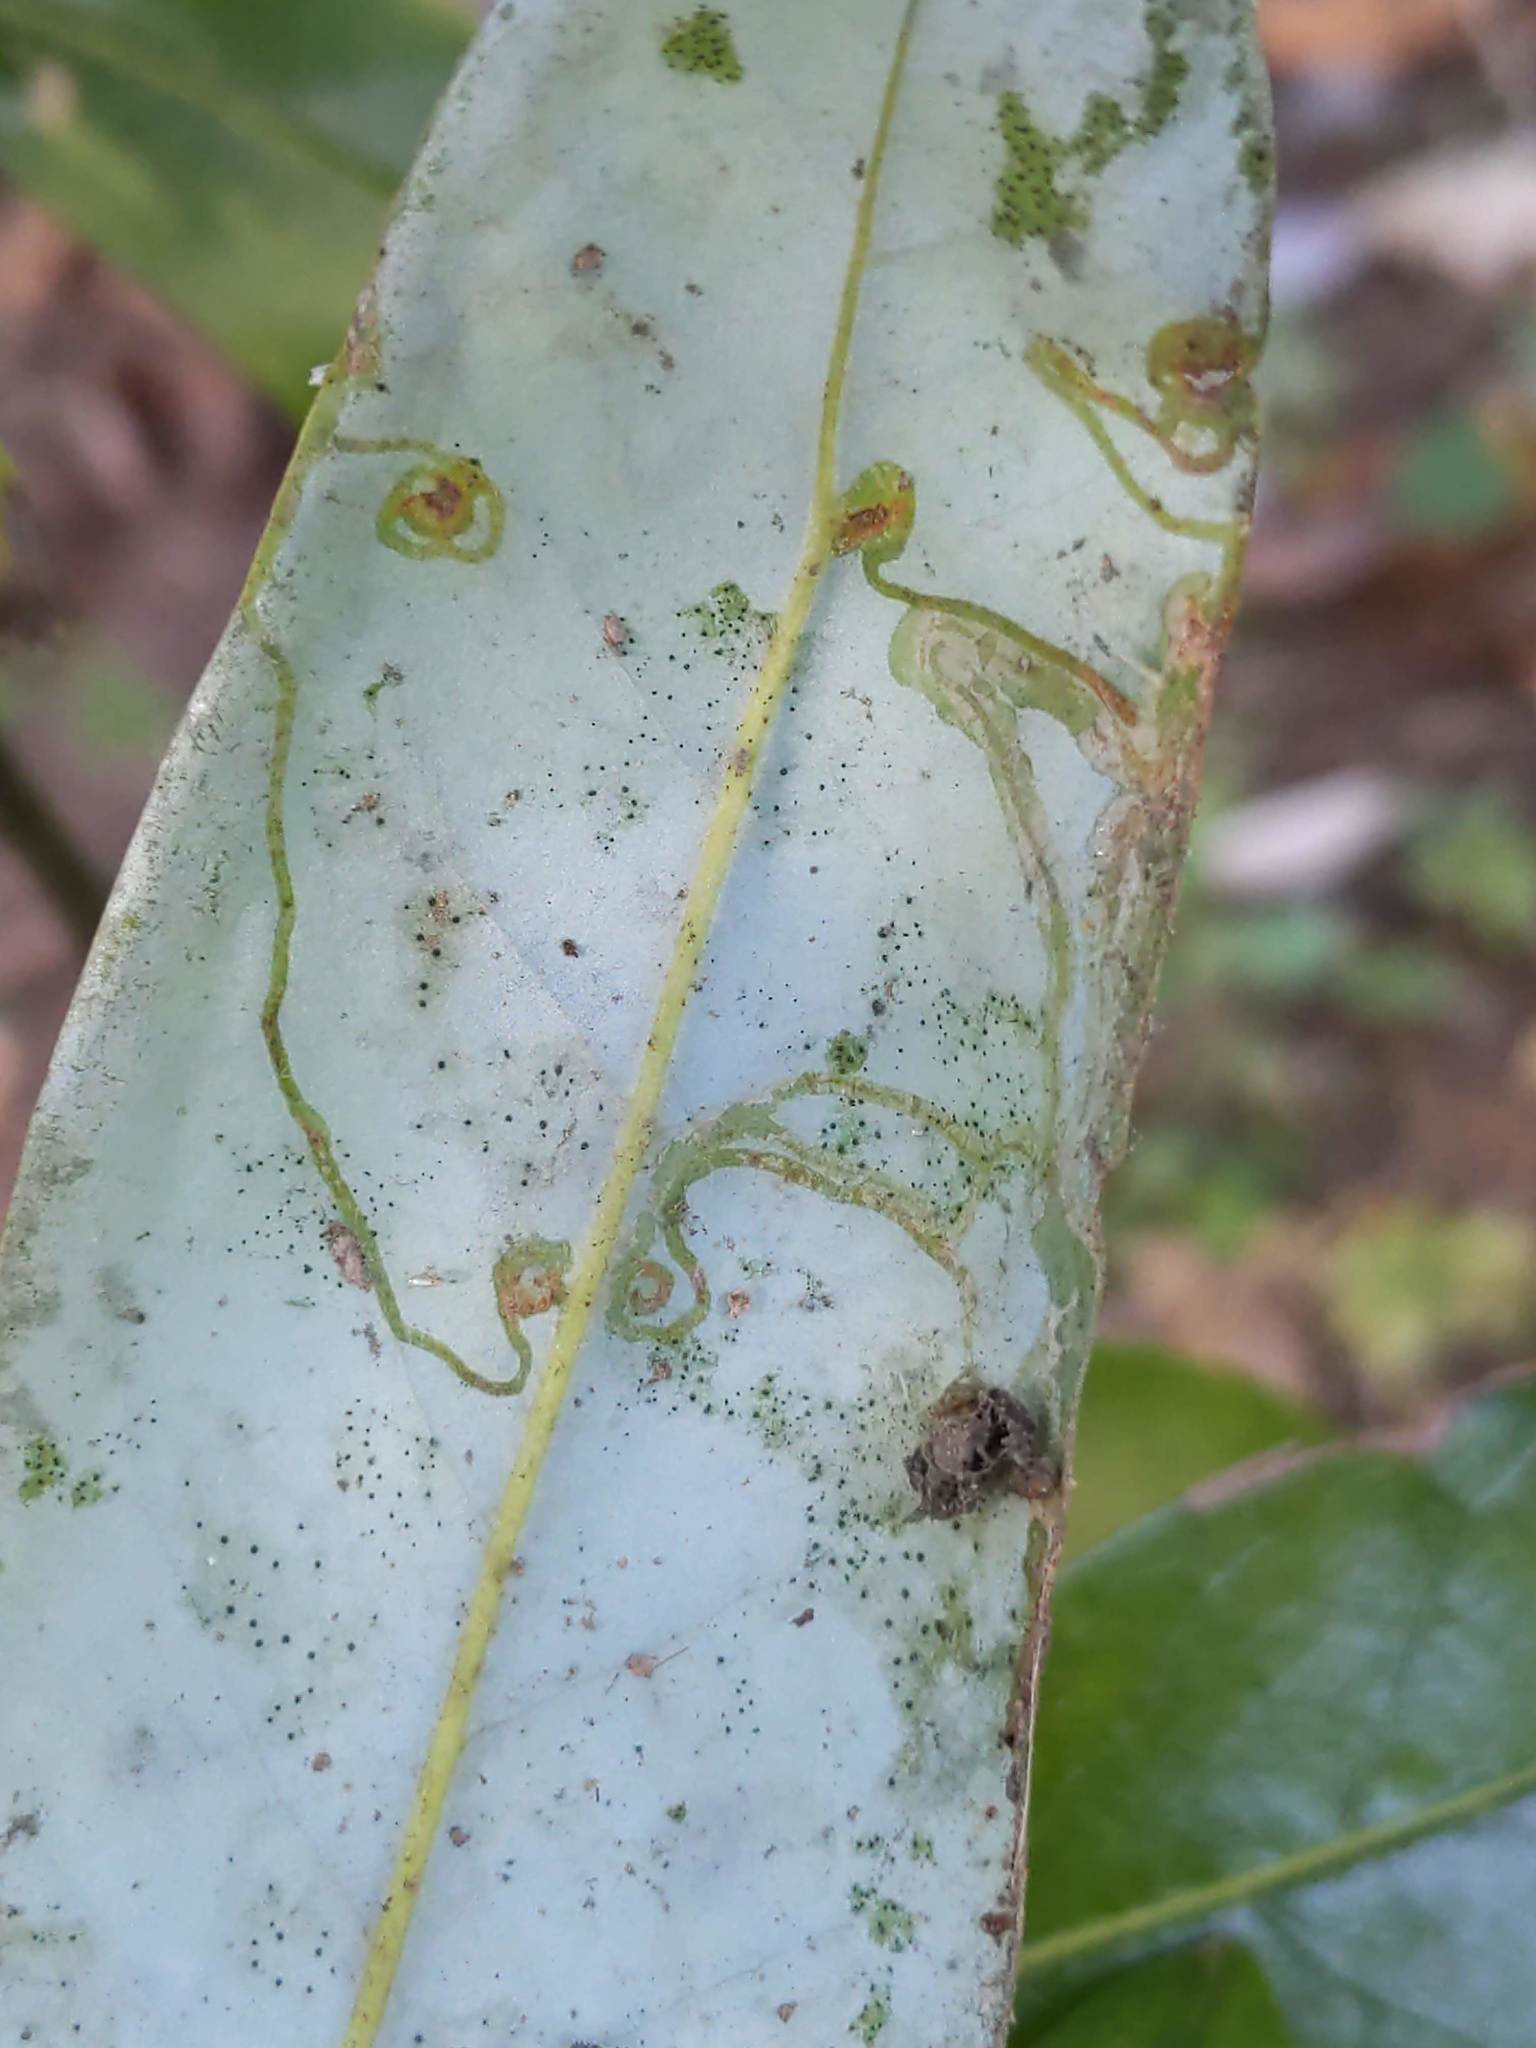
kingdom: Animalia
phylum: Arthropoda
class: Insecta
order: Lepidoptera
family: Gracillariidae
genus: Phyllocnistis
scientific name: Phyllocnistis liriodendronella
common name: Tulip tree leaf miner
